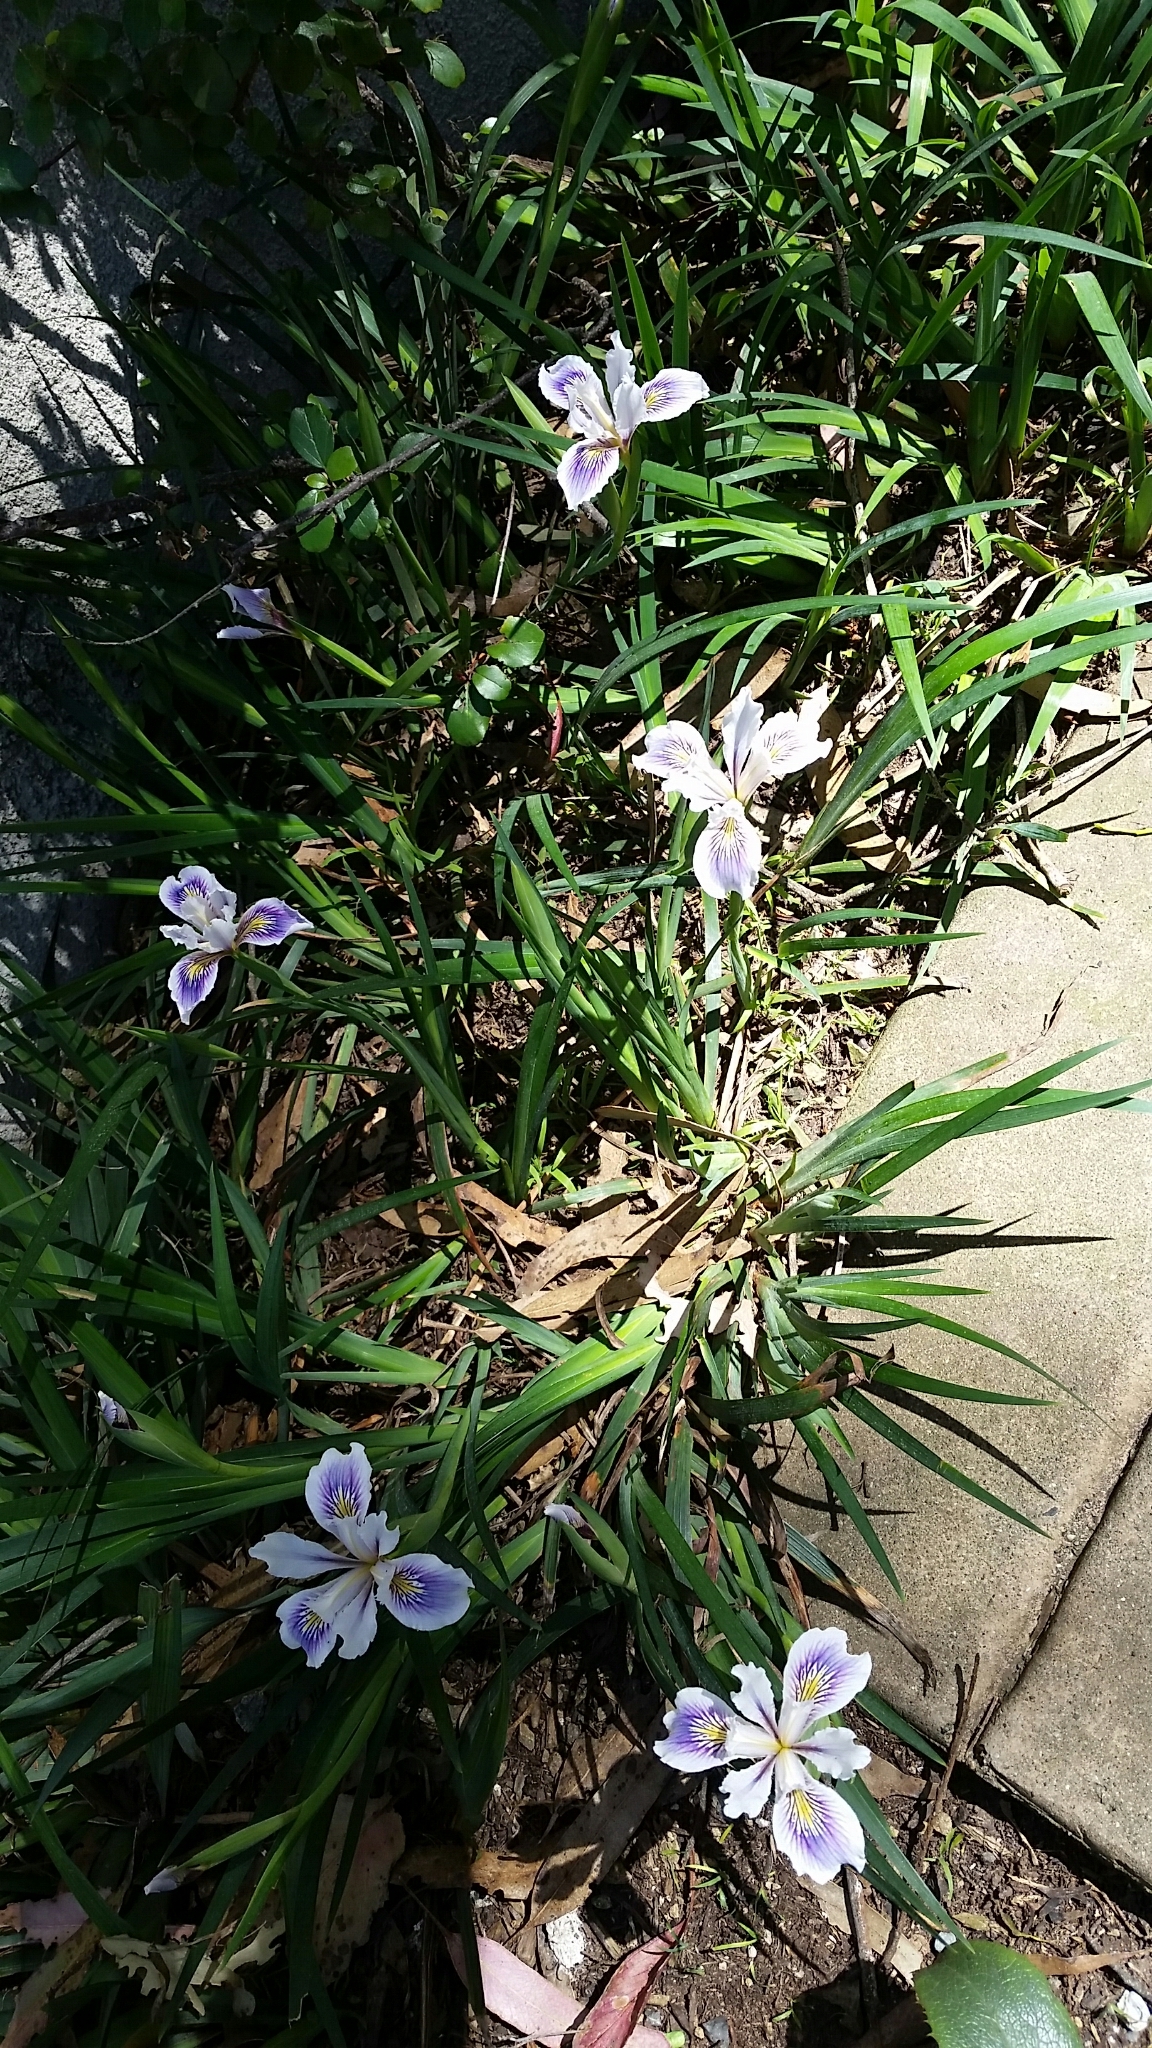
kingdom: Plantae
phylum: Tracheophyta
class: Liliopsida
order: Asparagales
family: Iridaceae
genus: Iris
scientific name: Iris douglasiana
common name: Marin iris
